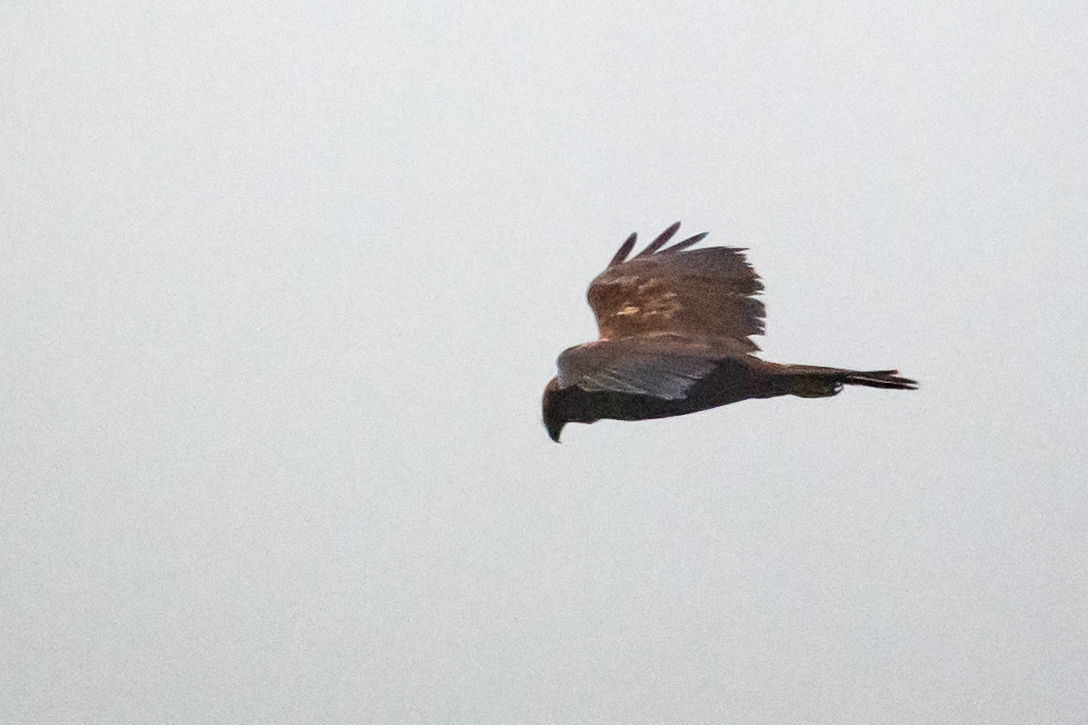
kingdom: Animalia
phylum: Chordata
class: Aves
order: Accipitriformes
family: Accipitridae
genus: Circus
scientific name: Circus aeruginosus
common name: Western marsh harrier
